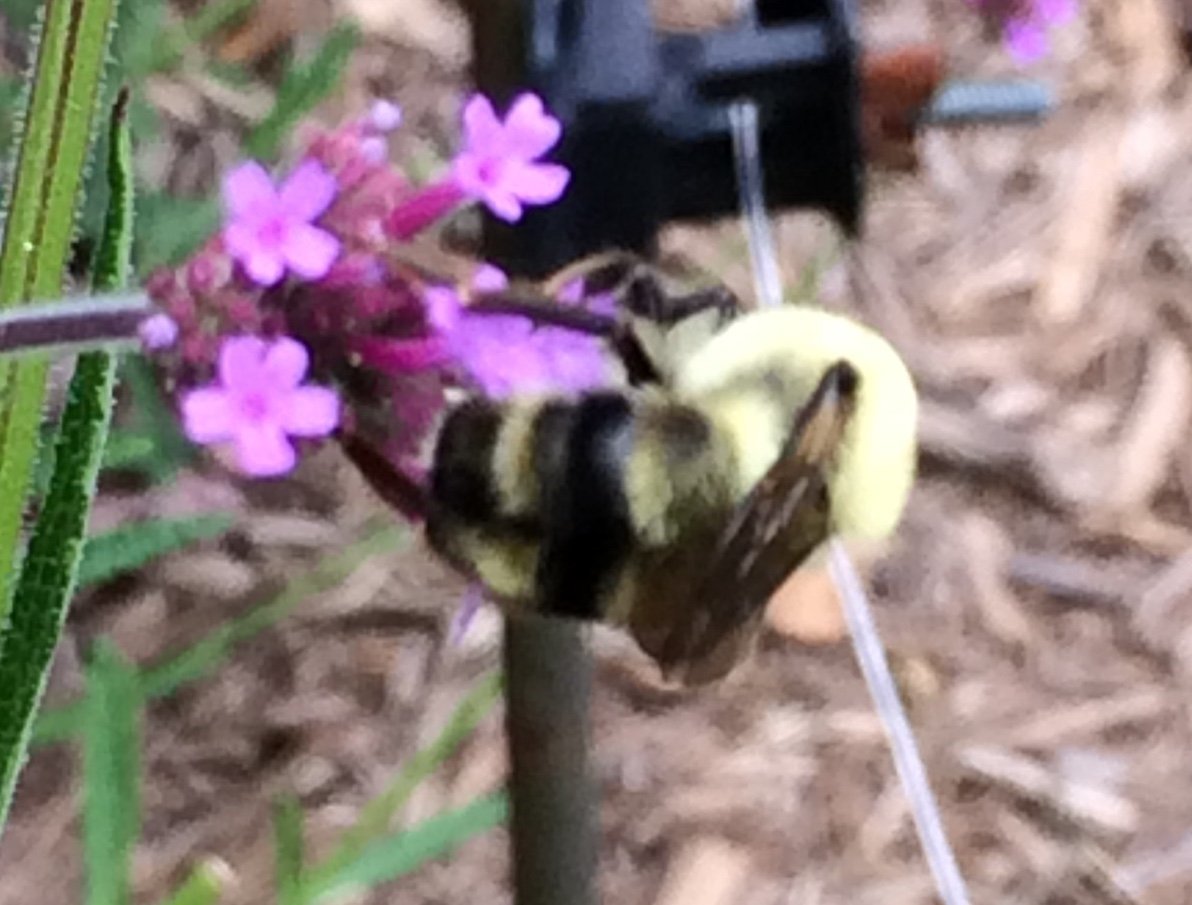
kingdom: Animalia
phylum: Arthropoda
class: Insecta
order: Hymenoptera
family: Apidae
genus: Bombus
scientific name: Bombus bimaculatus
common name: Two-spotted bumble bee
